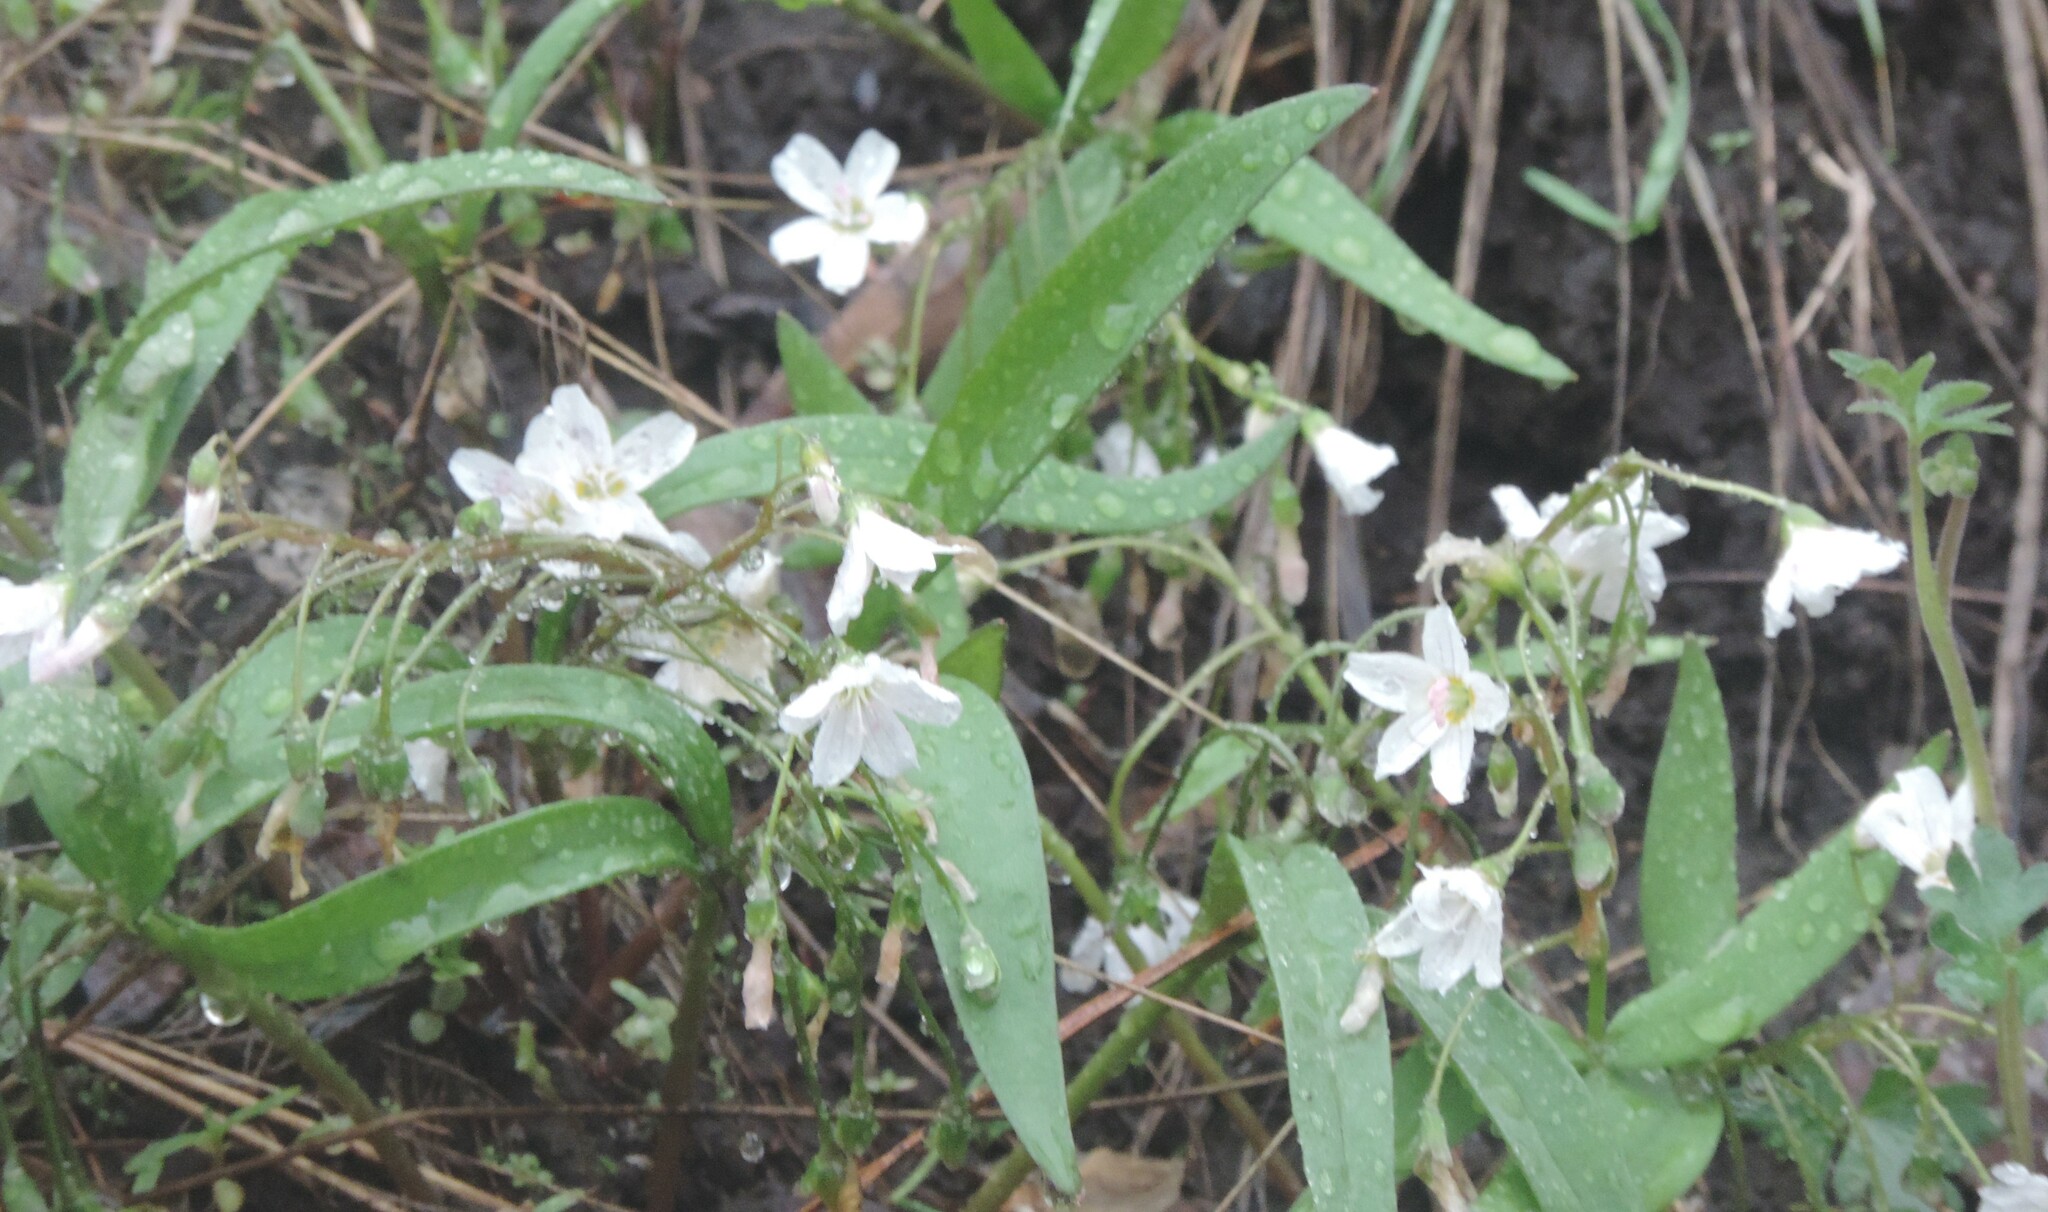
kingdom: Plantae
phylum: Tracheophyta
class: Magnoliopsida
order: Caryophyllales
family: Montiaceae
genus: Claytonia
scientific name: Claytonia lanceolata
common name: Western spring-beauty
